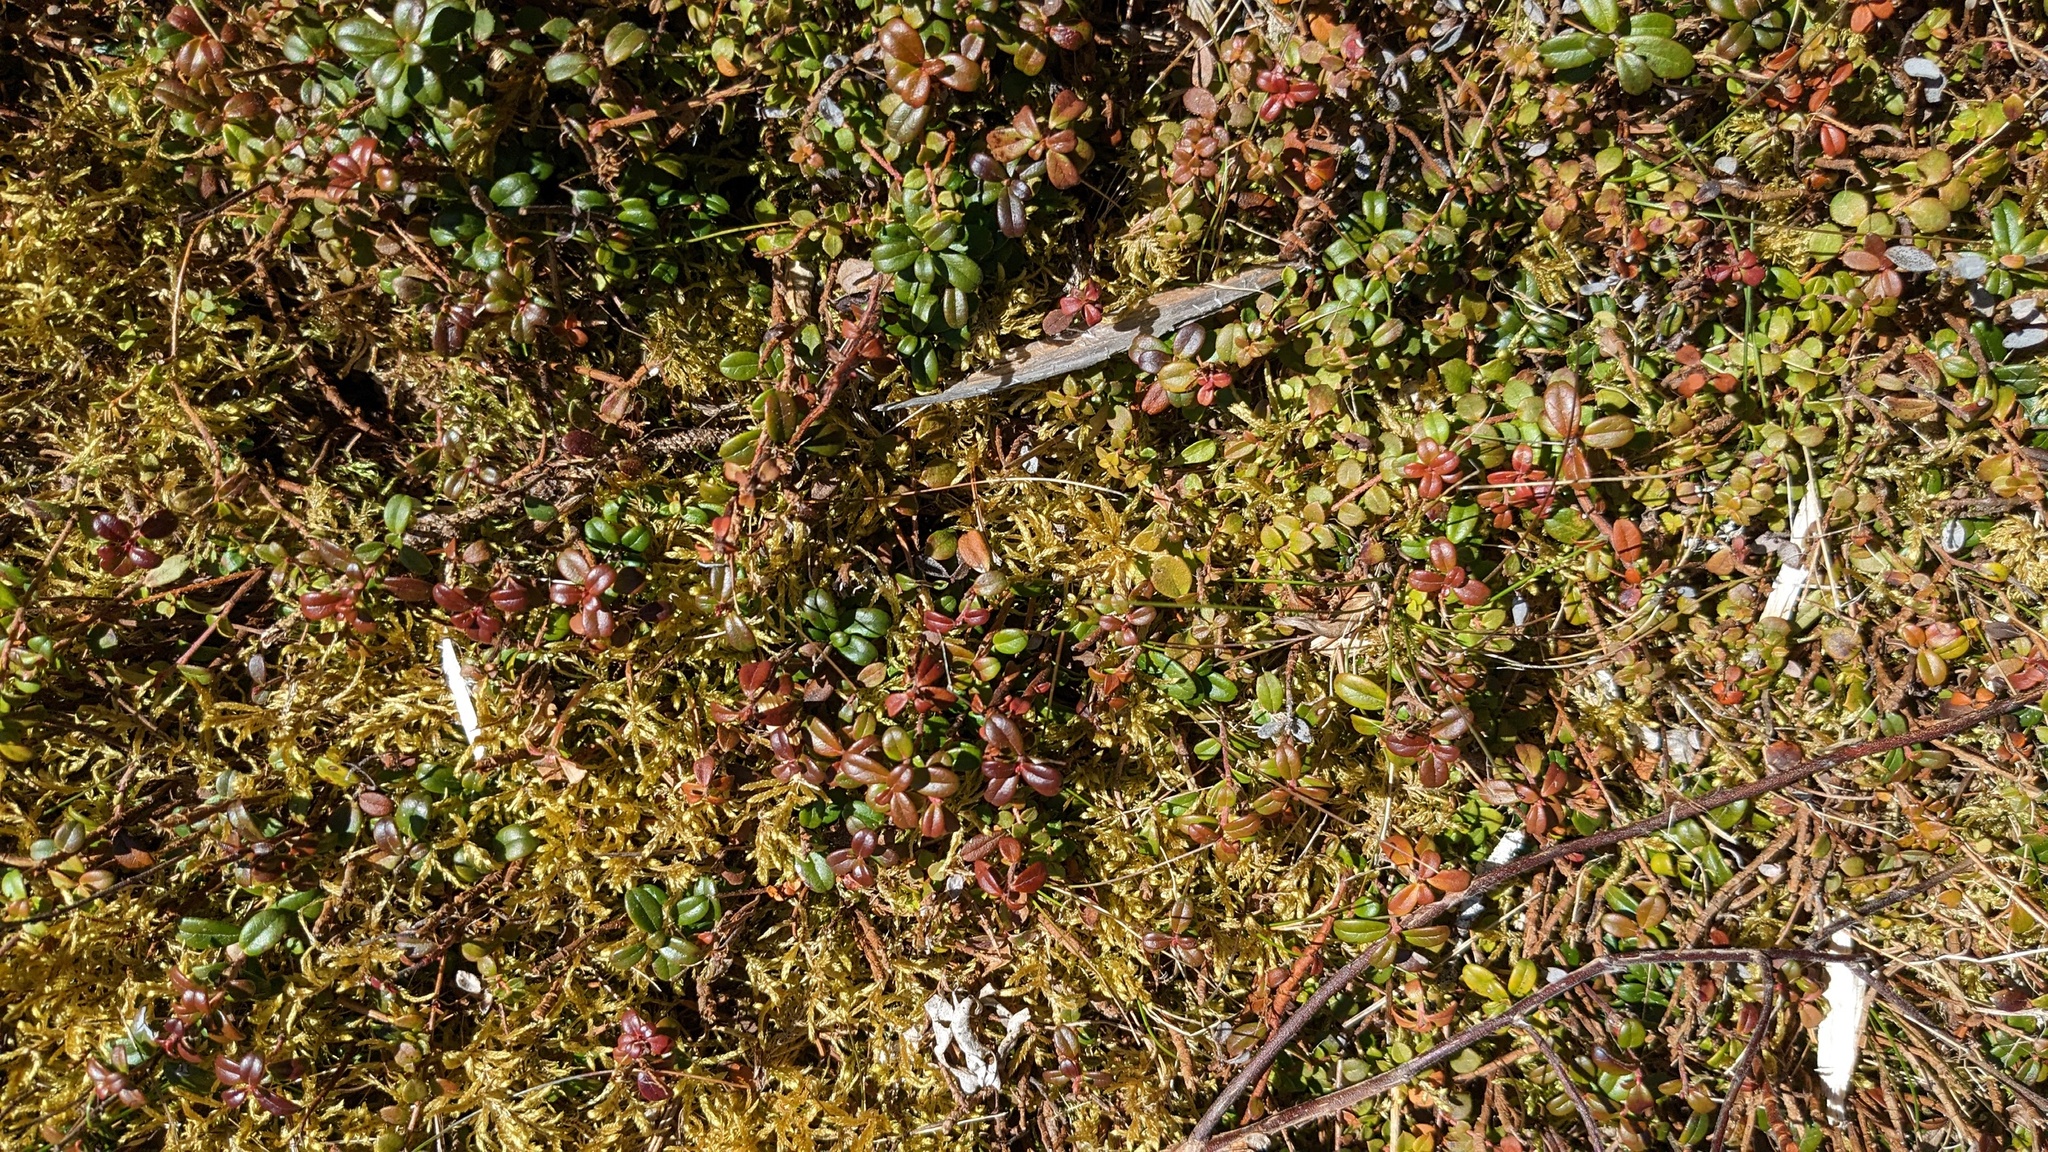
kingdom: Plantae
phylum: Tracheophyta
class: Magnoliopsida
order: Ericales
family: Ericaceae
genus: Vaccinium
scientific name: Vaccinium vitis-idaea
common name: Cowberry
